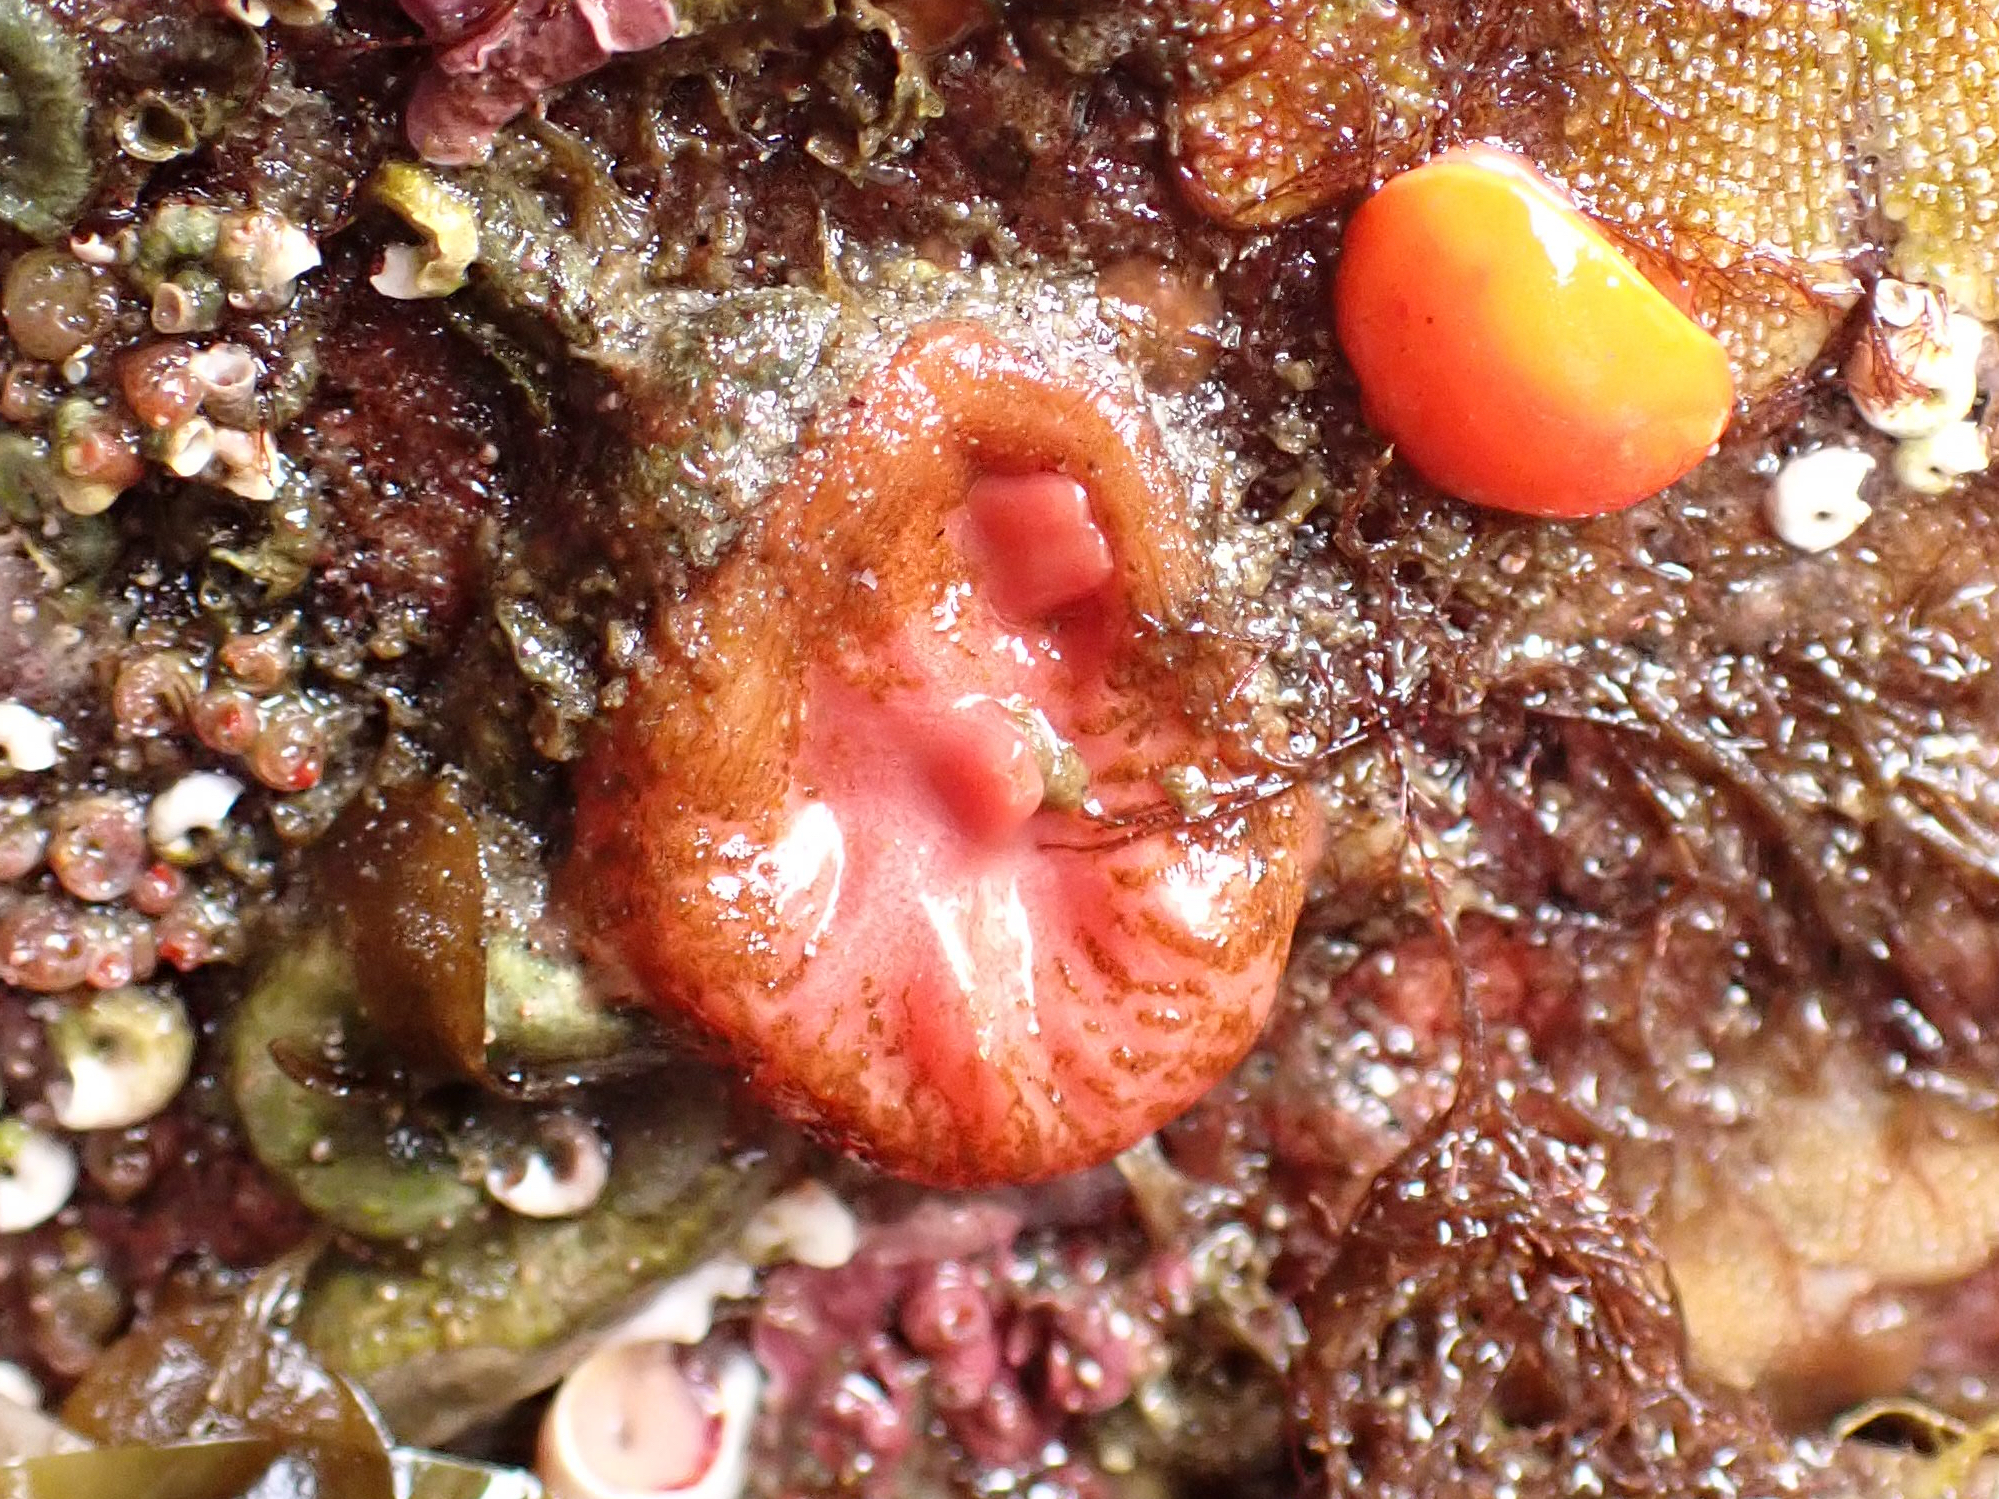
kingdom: Animalia
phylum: Chordata
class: Ascidiacea
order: Stolidobranchia
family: Styelidae
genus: Cnemidocarpa
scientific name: Cnemidocarpa finmarkiensis
